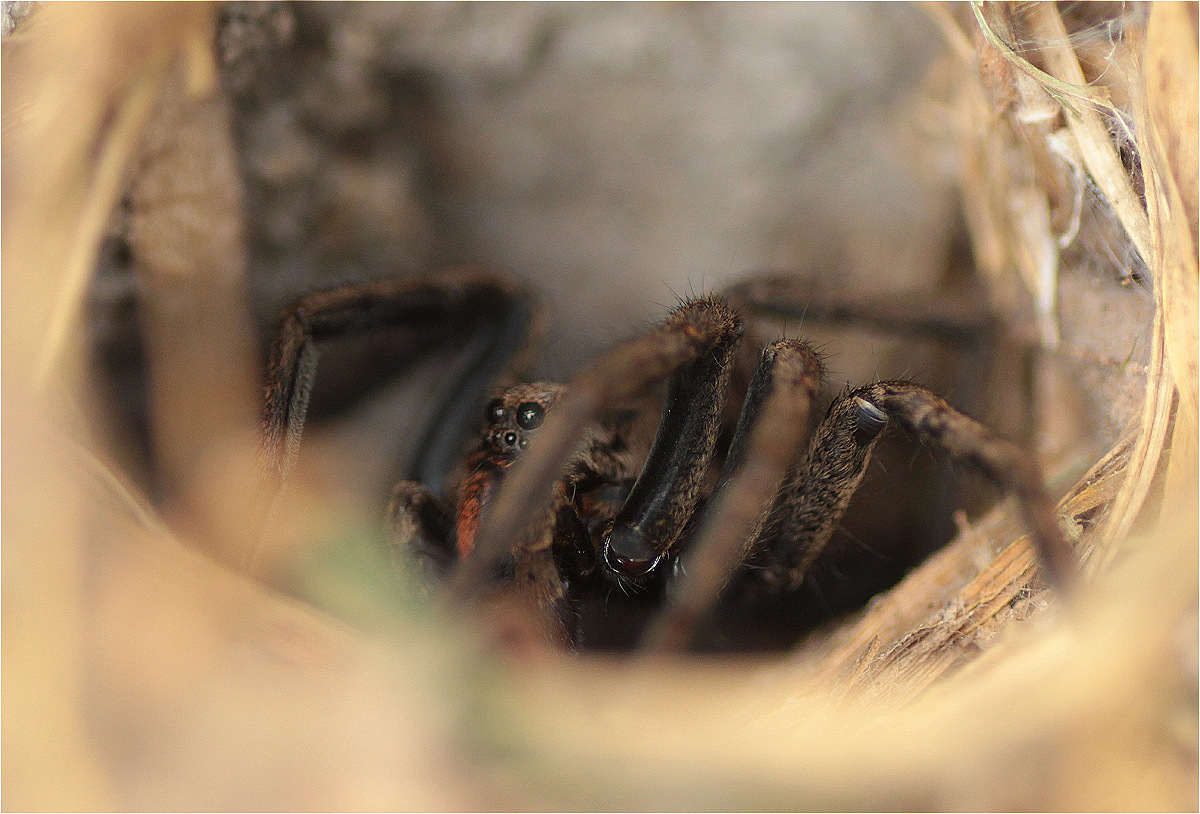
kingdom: Animalia
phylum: Arthropoda
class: Arachnida
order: Araneae
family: Lycosidae
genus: Lycosa
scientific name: Lycosa erythrognatha
